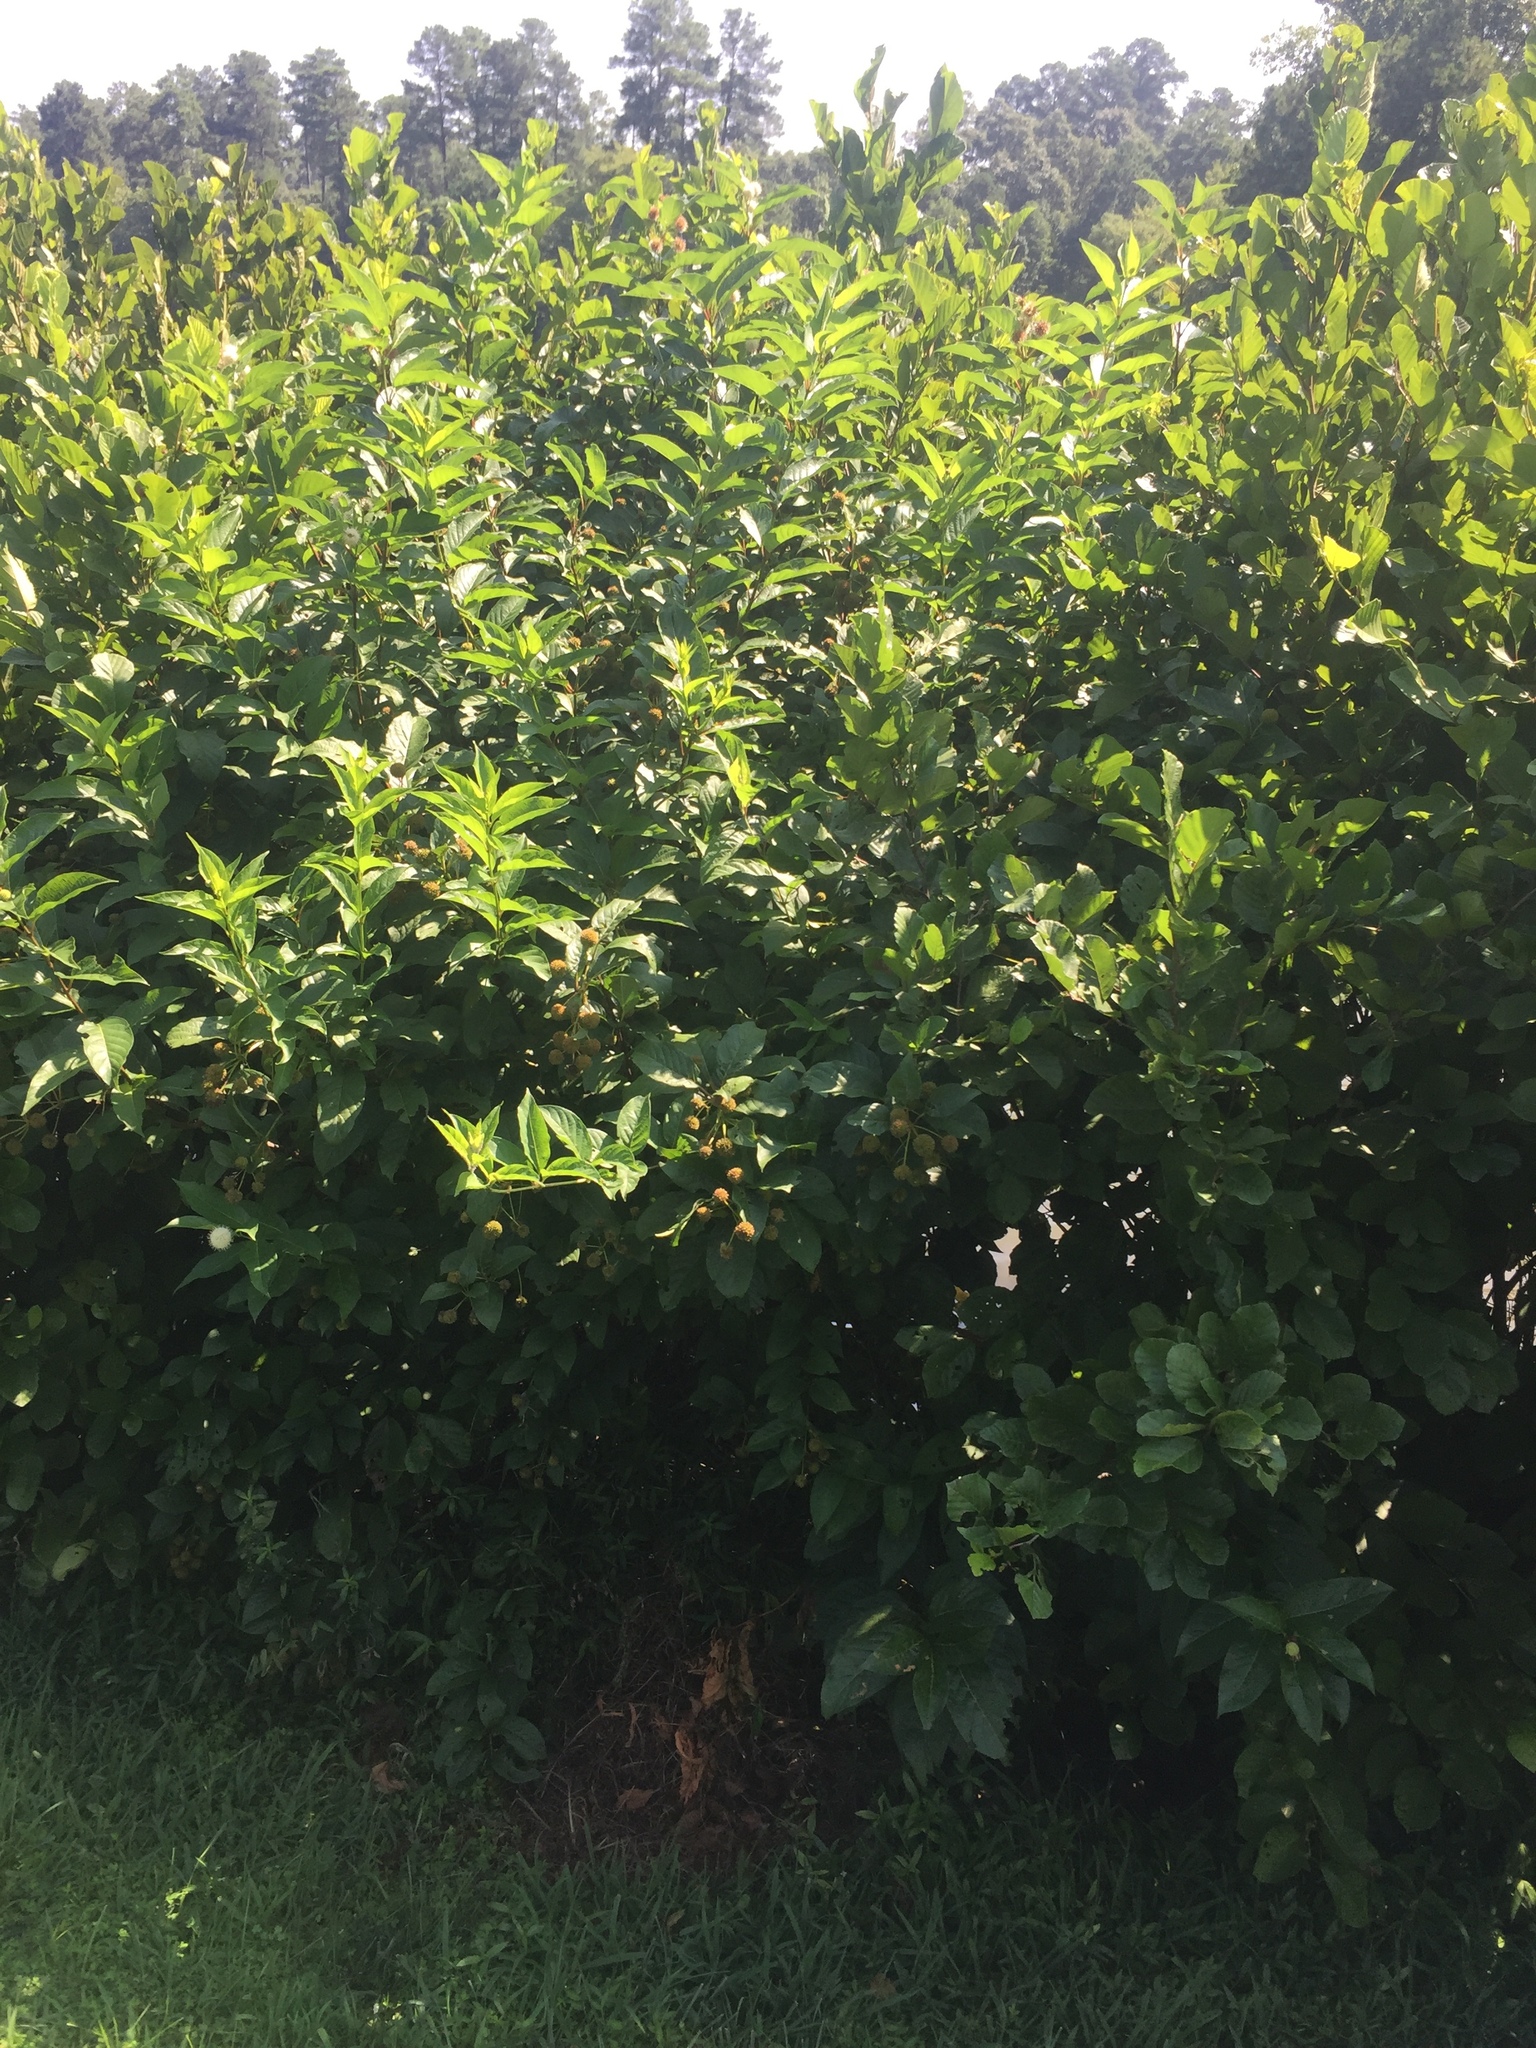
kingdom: Plantae
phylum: Tracheophyta
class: Magnoliopsida
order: Gentianales
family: Rubiaceae
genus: Cephalanthus
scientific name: Cephalanthus occidentalis
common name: Button-willow
